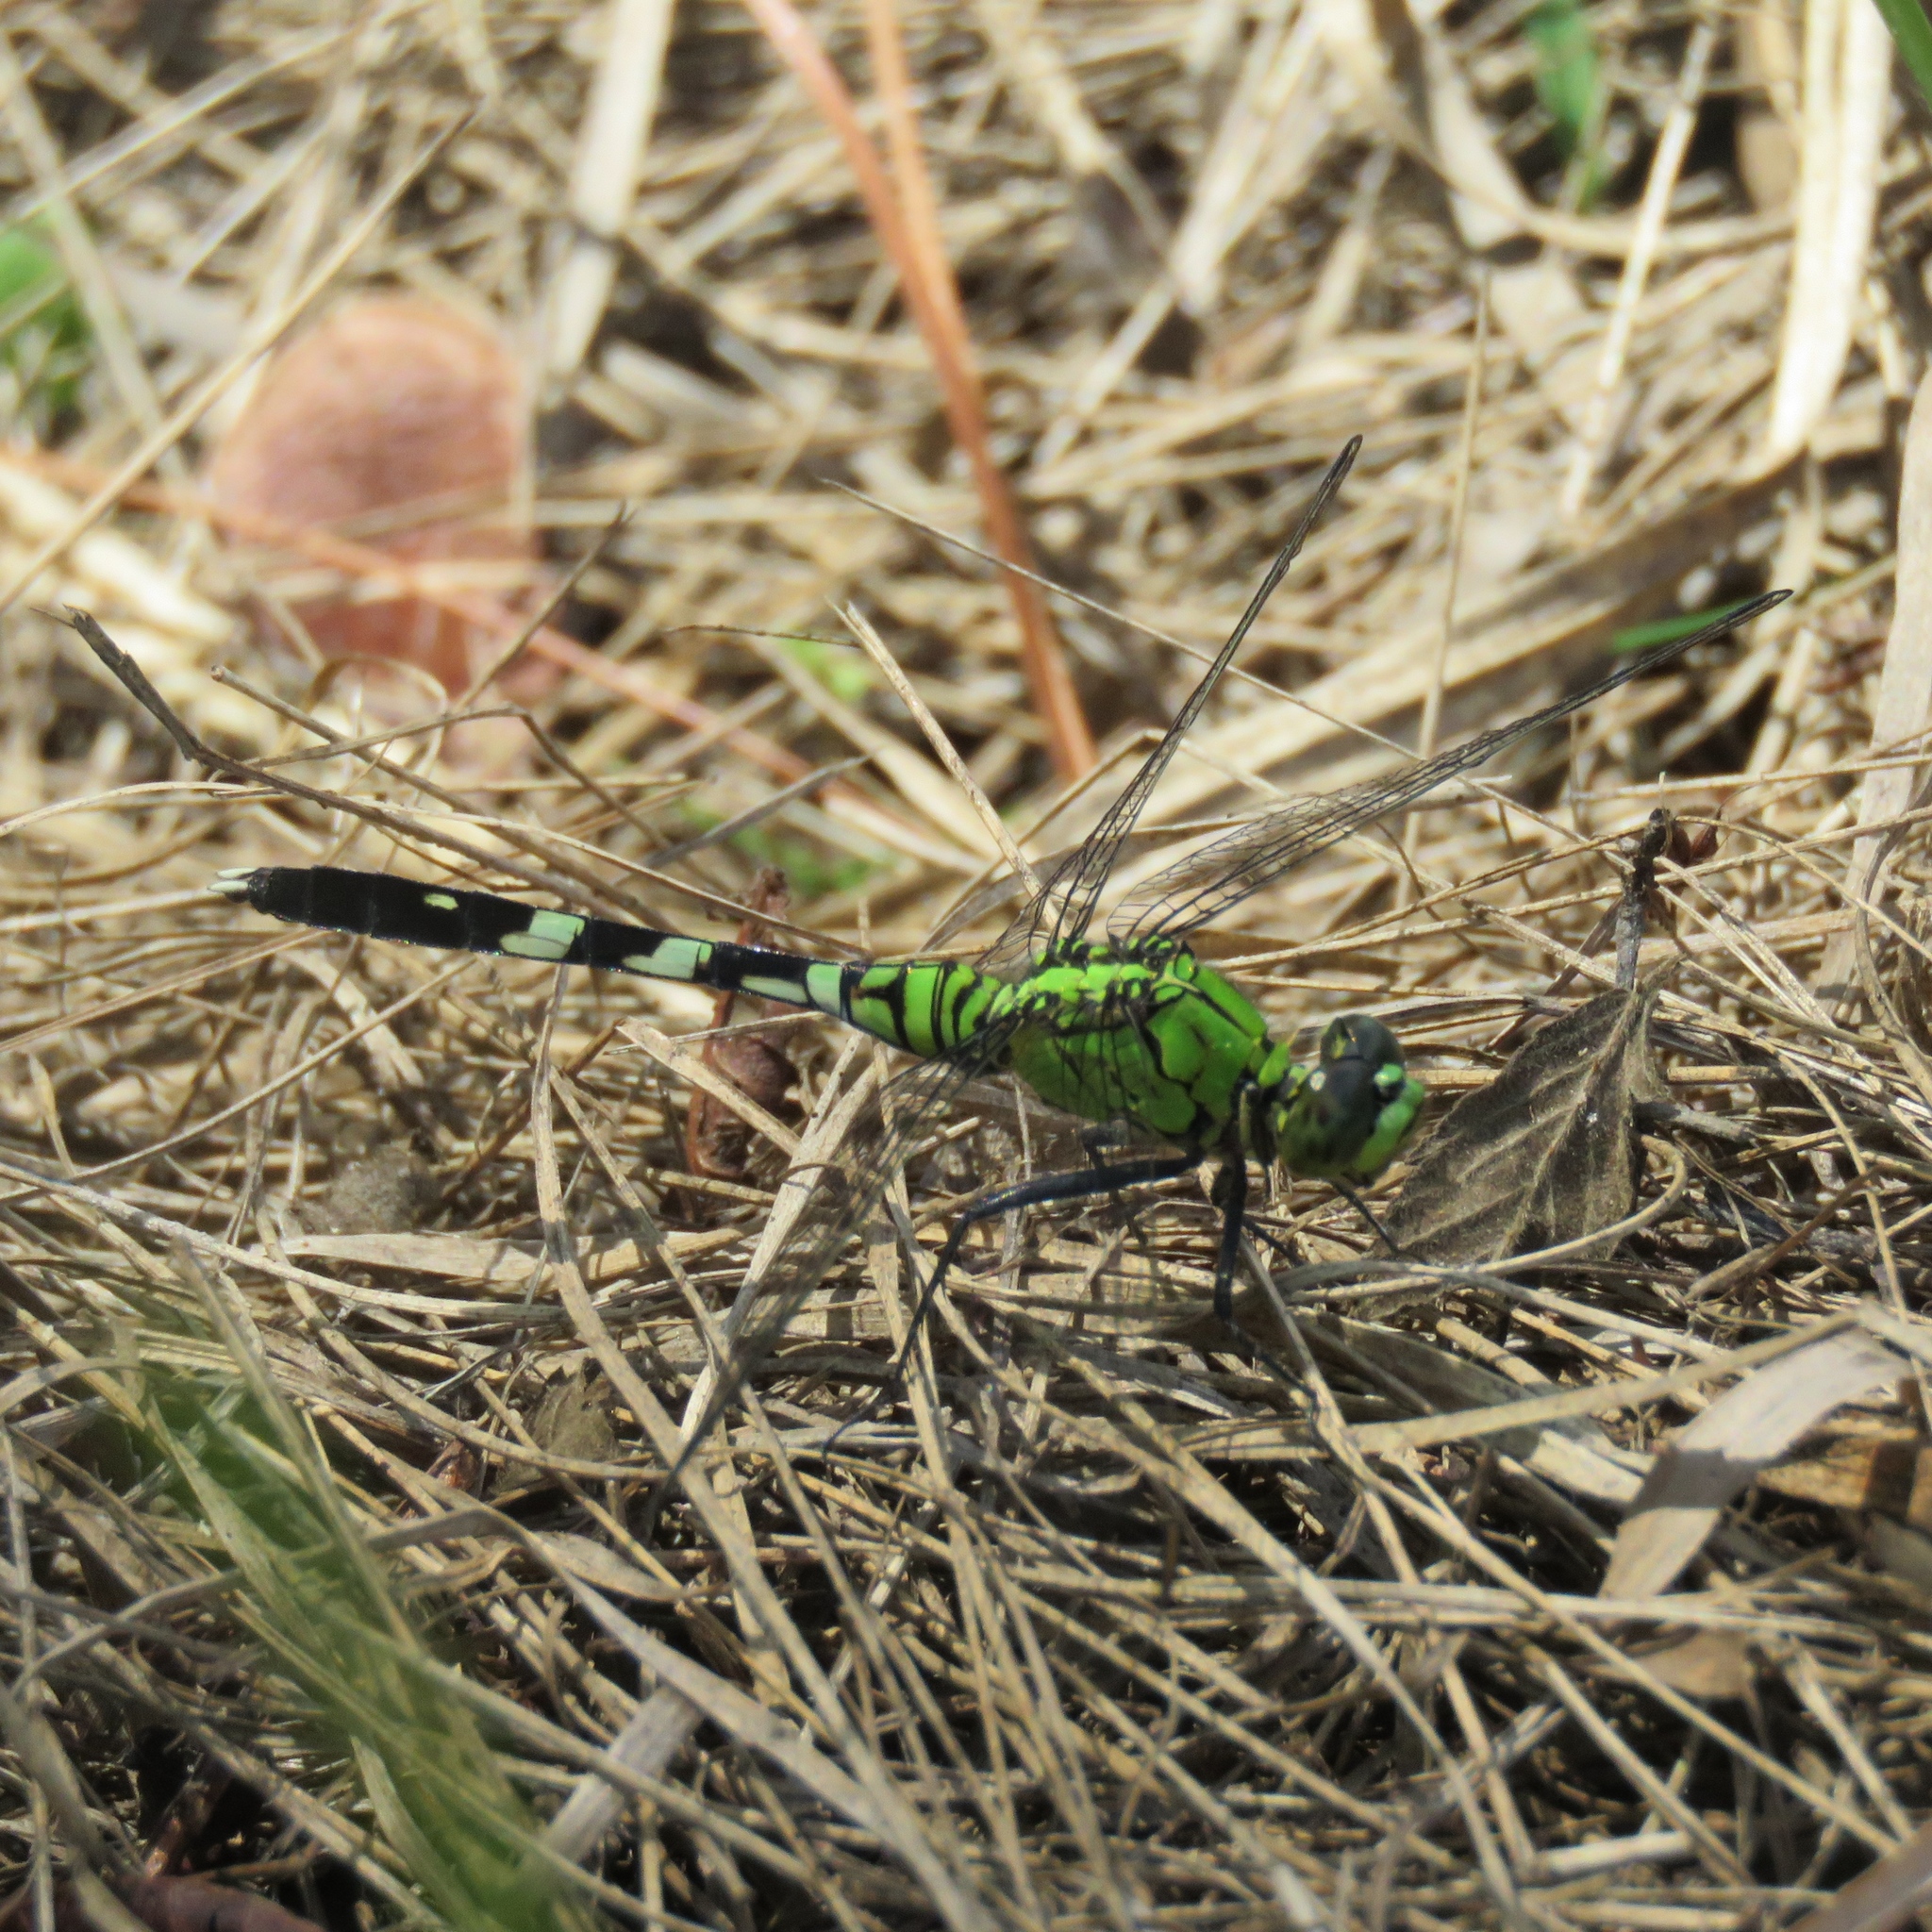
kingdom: Animalia
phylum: Arthropoda
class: Insecta
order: Odonata
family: Libellulidae
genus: Erythemis
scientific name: Erythemis simplicicollis
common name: Eastern pondhawk
